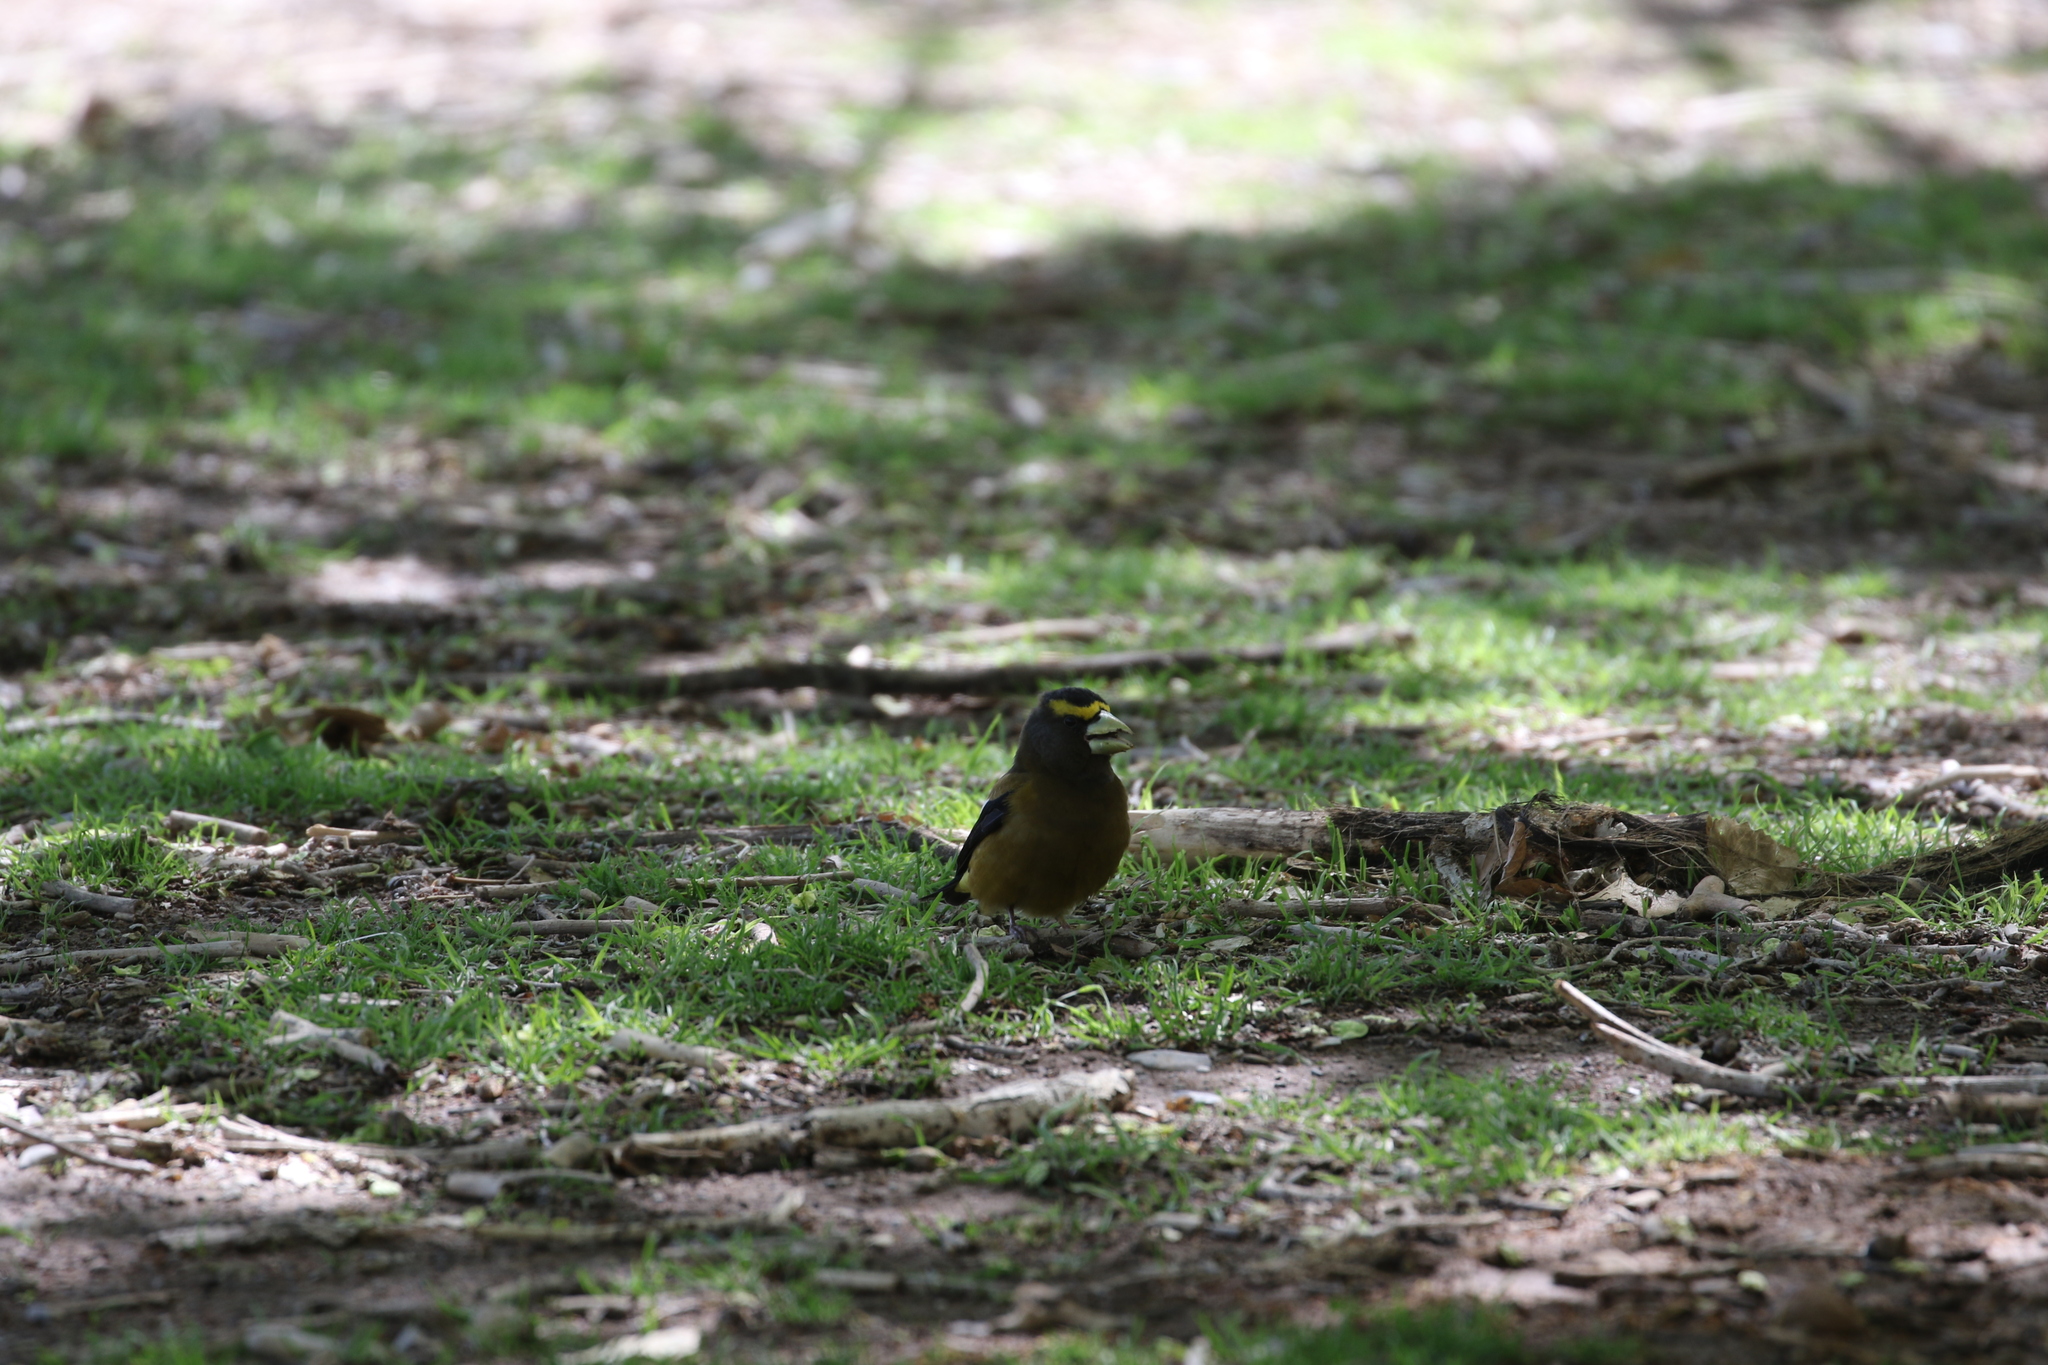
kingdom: Animalia
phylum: Chordata
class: Aves
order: Passeriformes
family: Fringillidae
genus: Hesperiphona
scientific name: Hesperiphona vespertina
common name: Evening grosbeak
